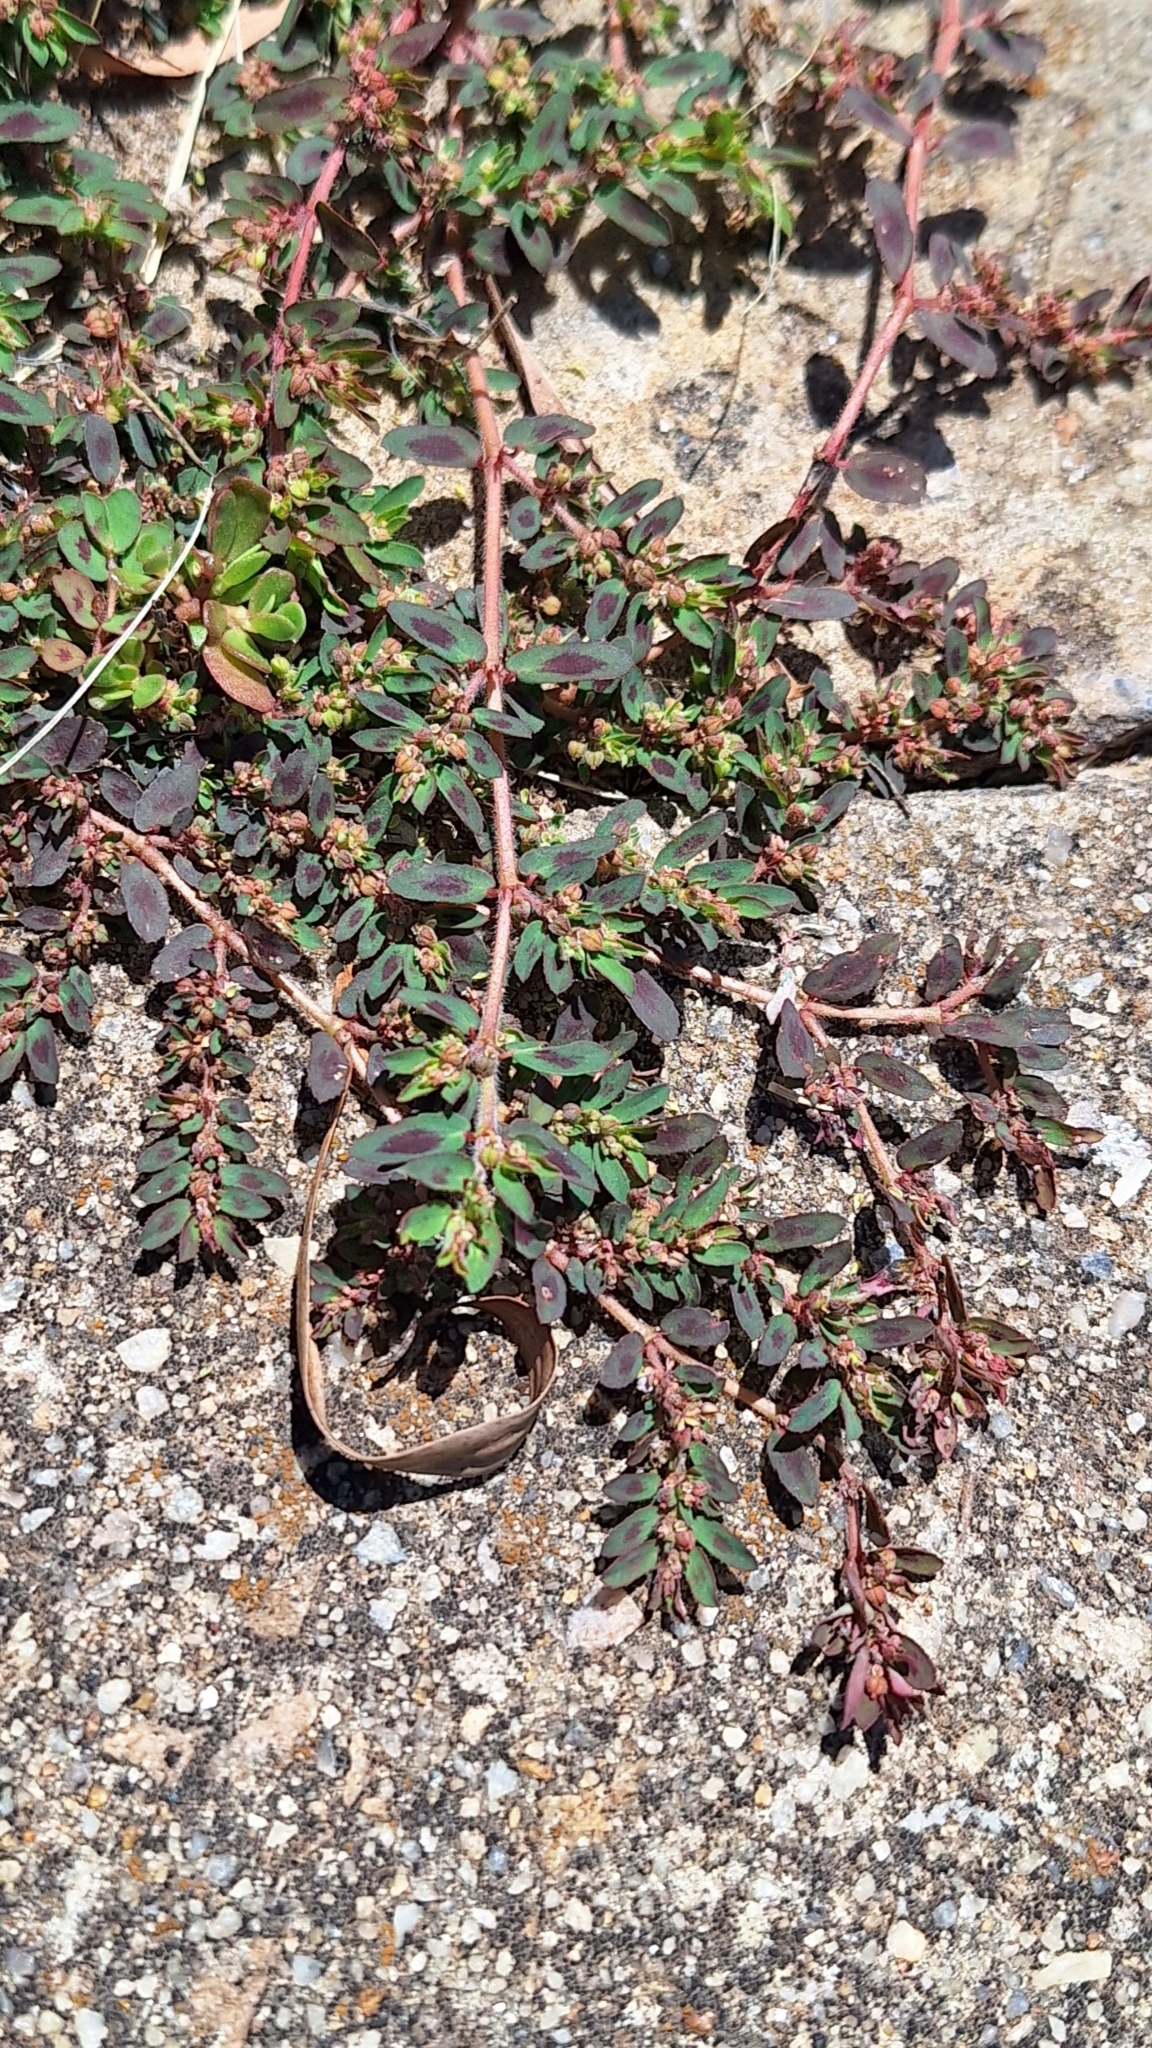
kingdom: Plantae
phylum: Tracheophyta
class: Magnoliopsida
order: Malpighiales
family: Euphorbiaceae
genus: Euphorbia
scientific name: Euphorbia maculata
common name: Spotted spurge
